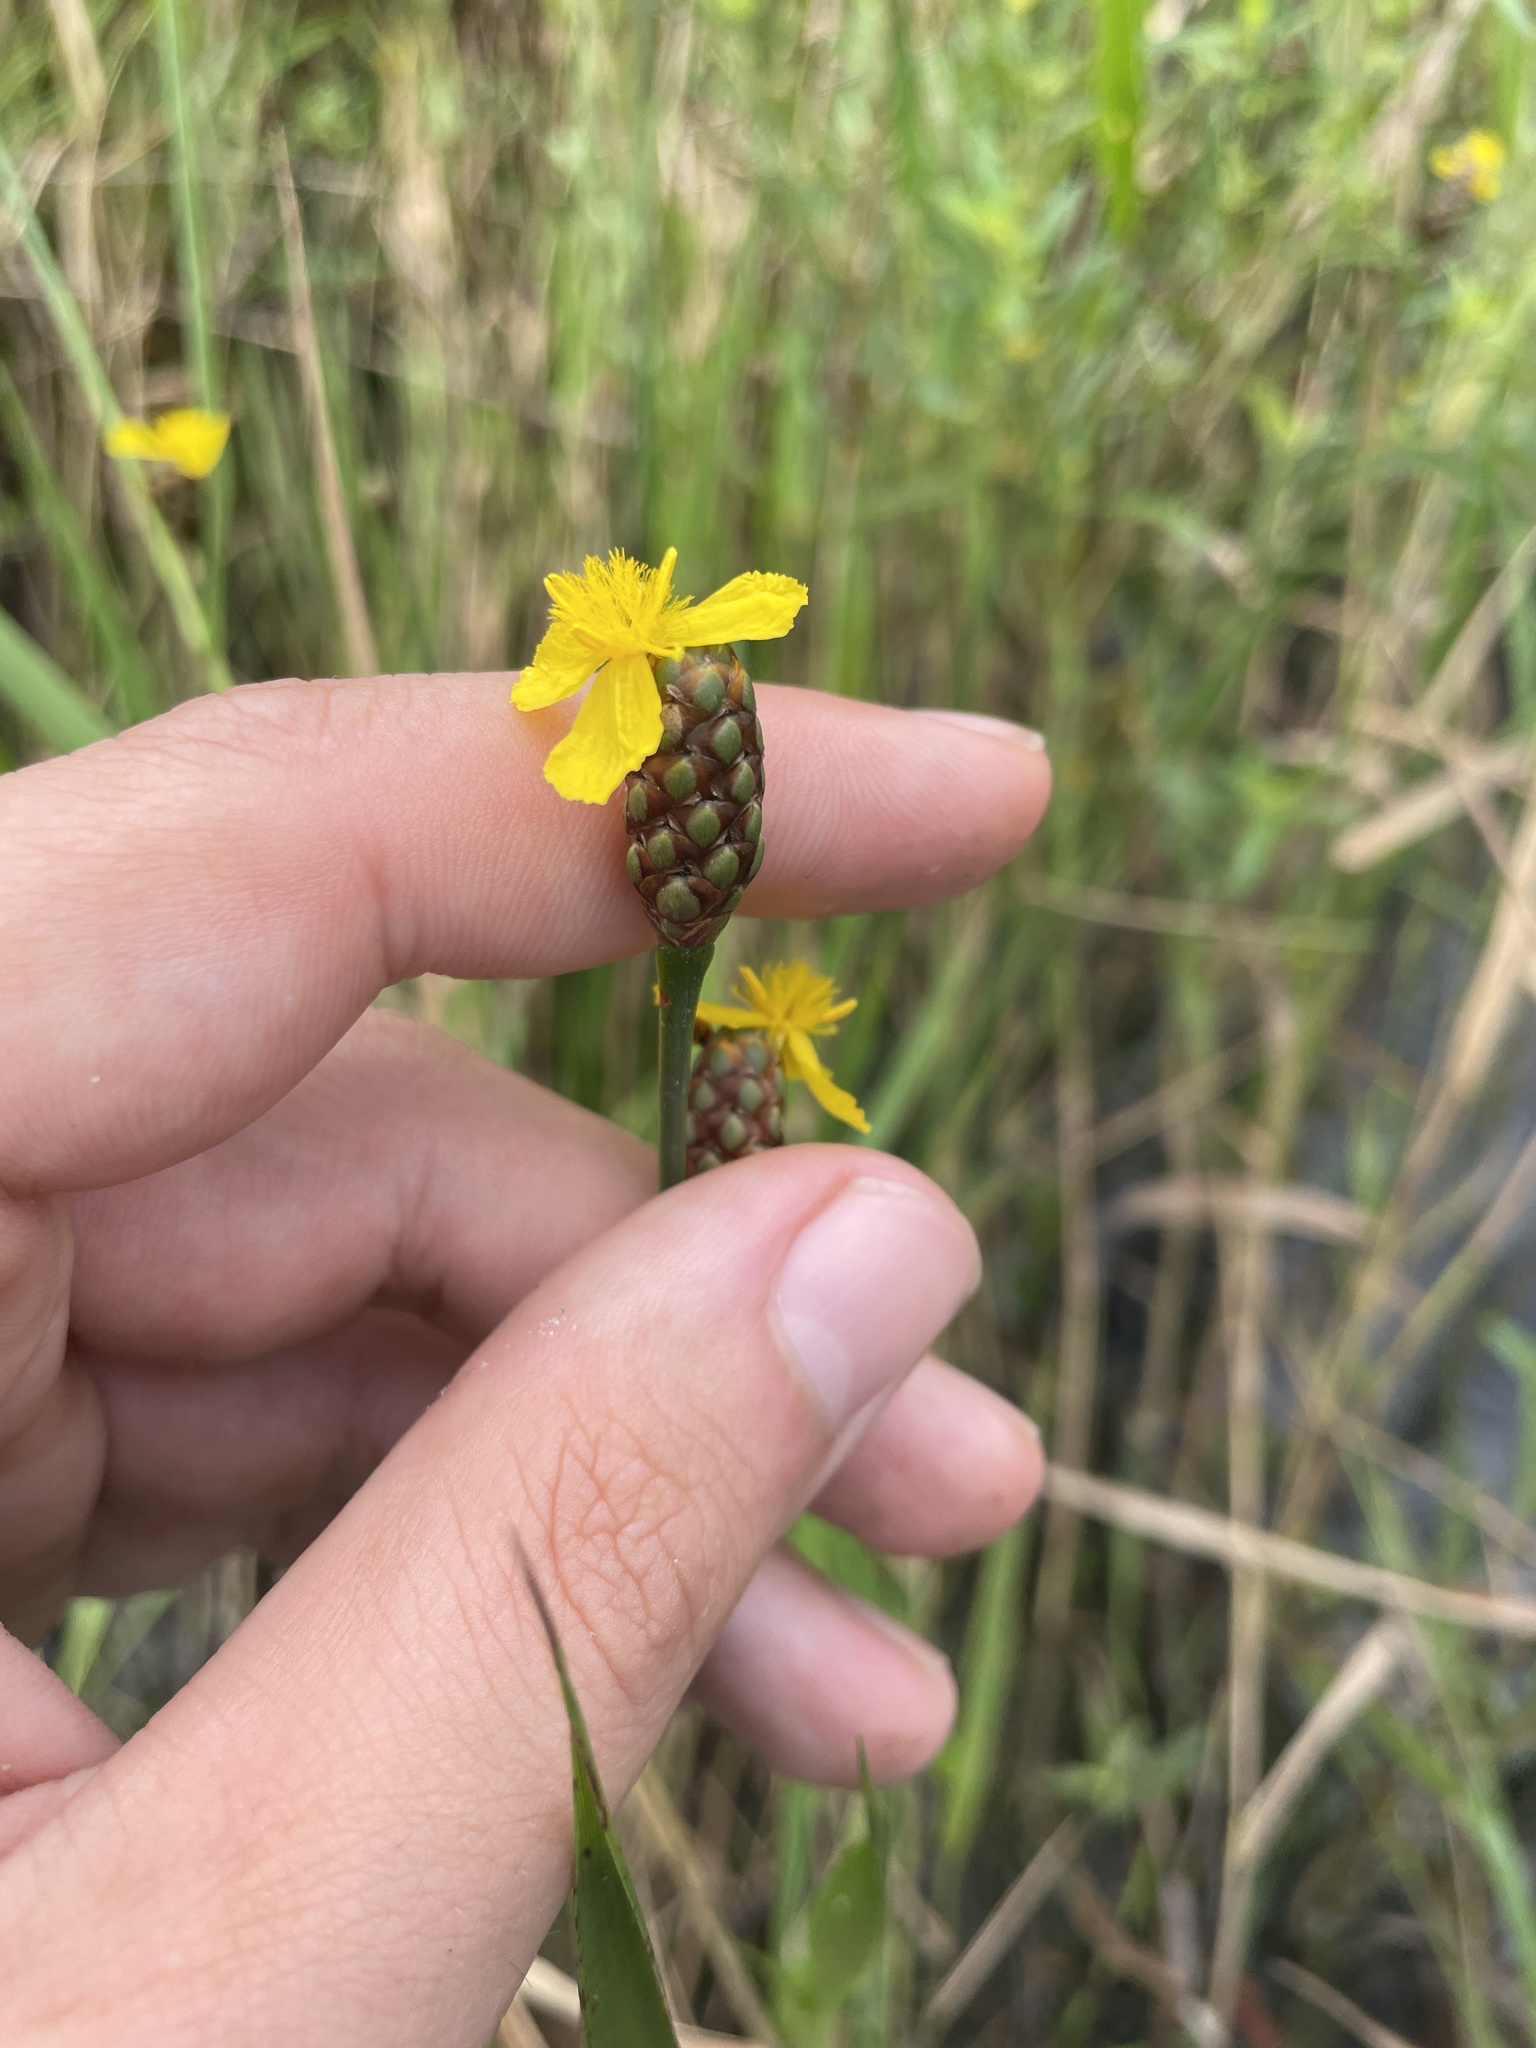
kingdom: Plantae
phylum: Tracheophyta
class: Liliopsida
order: Poales
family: Xyridaceae
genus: Xyris
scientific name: Xyris smalliana
